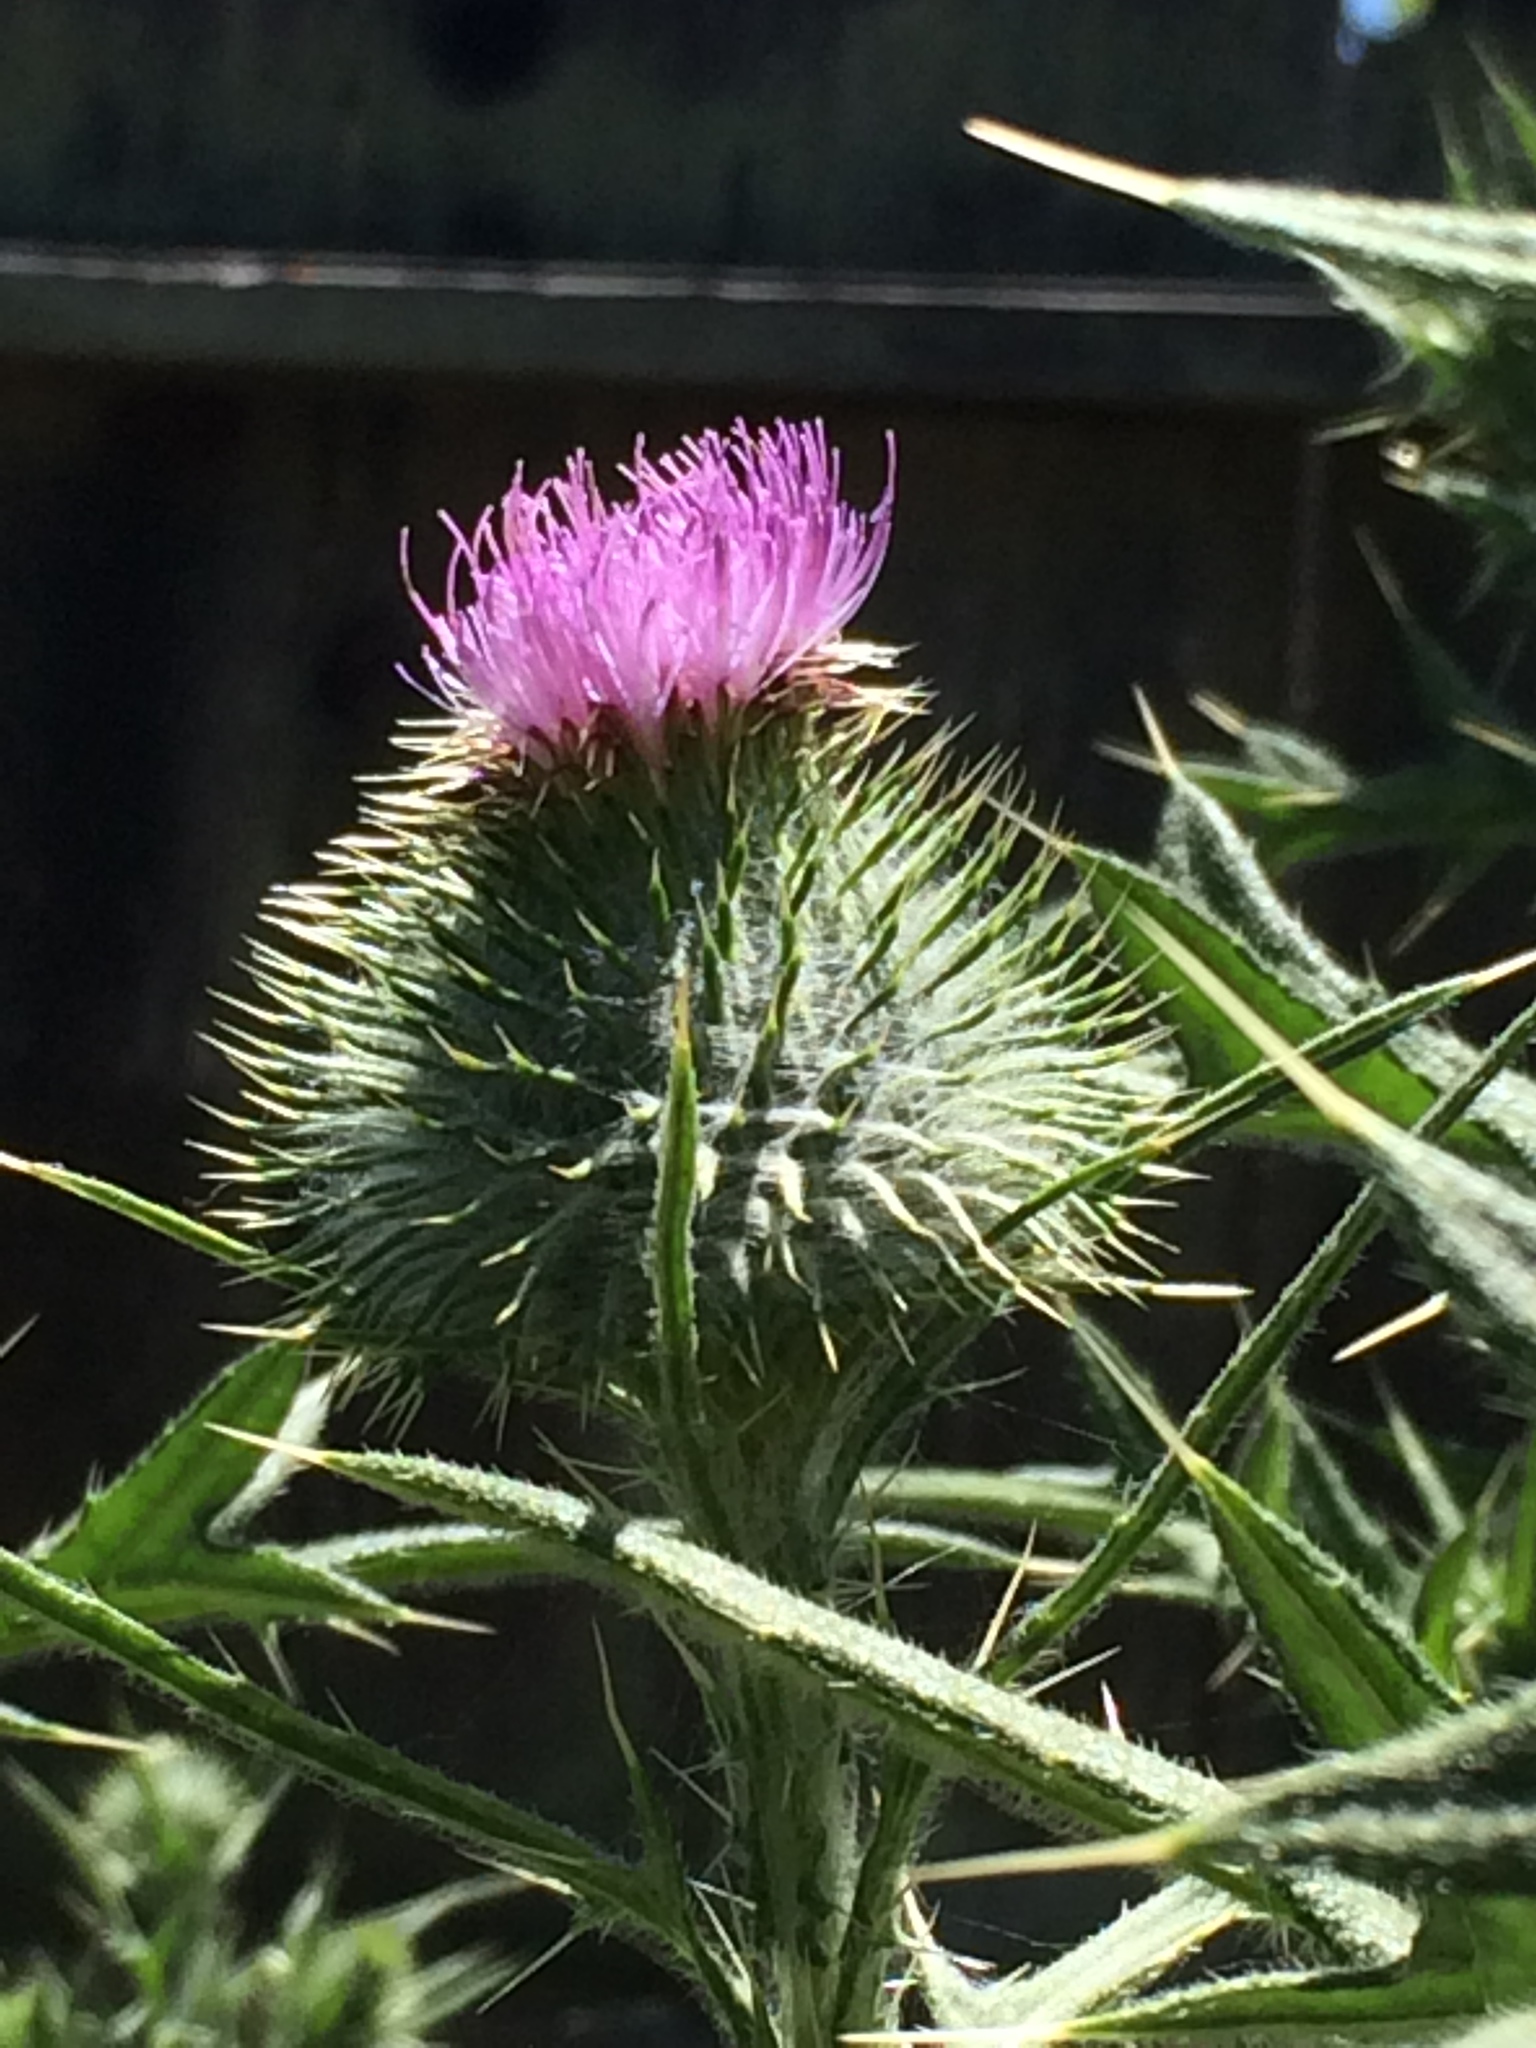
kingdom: Plantae
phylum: Tracheophyta
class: Magnoliopsida
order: Asterales
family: Asteraceae
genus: Cirsium
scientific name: Cirsium vulgare
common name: Bull thistle
